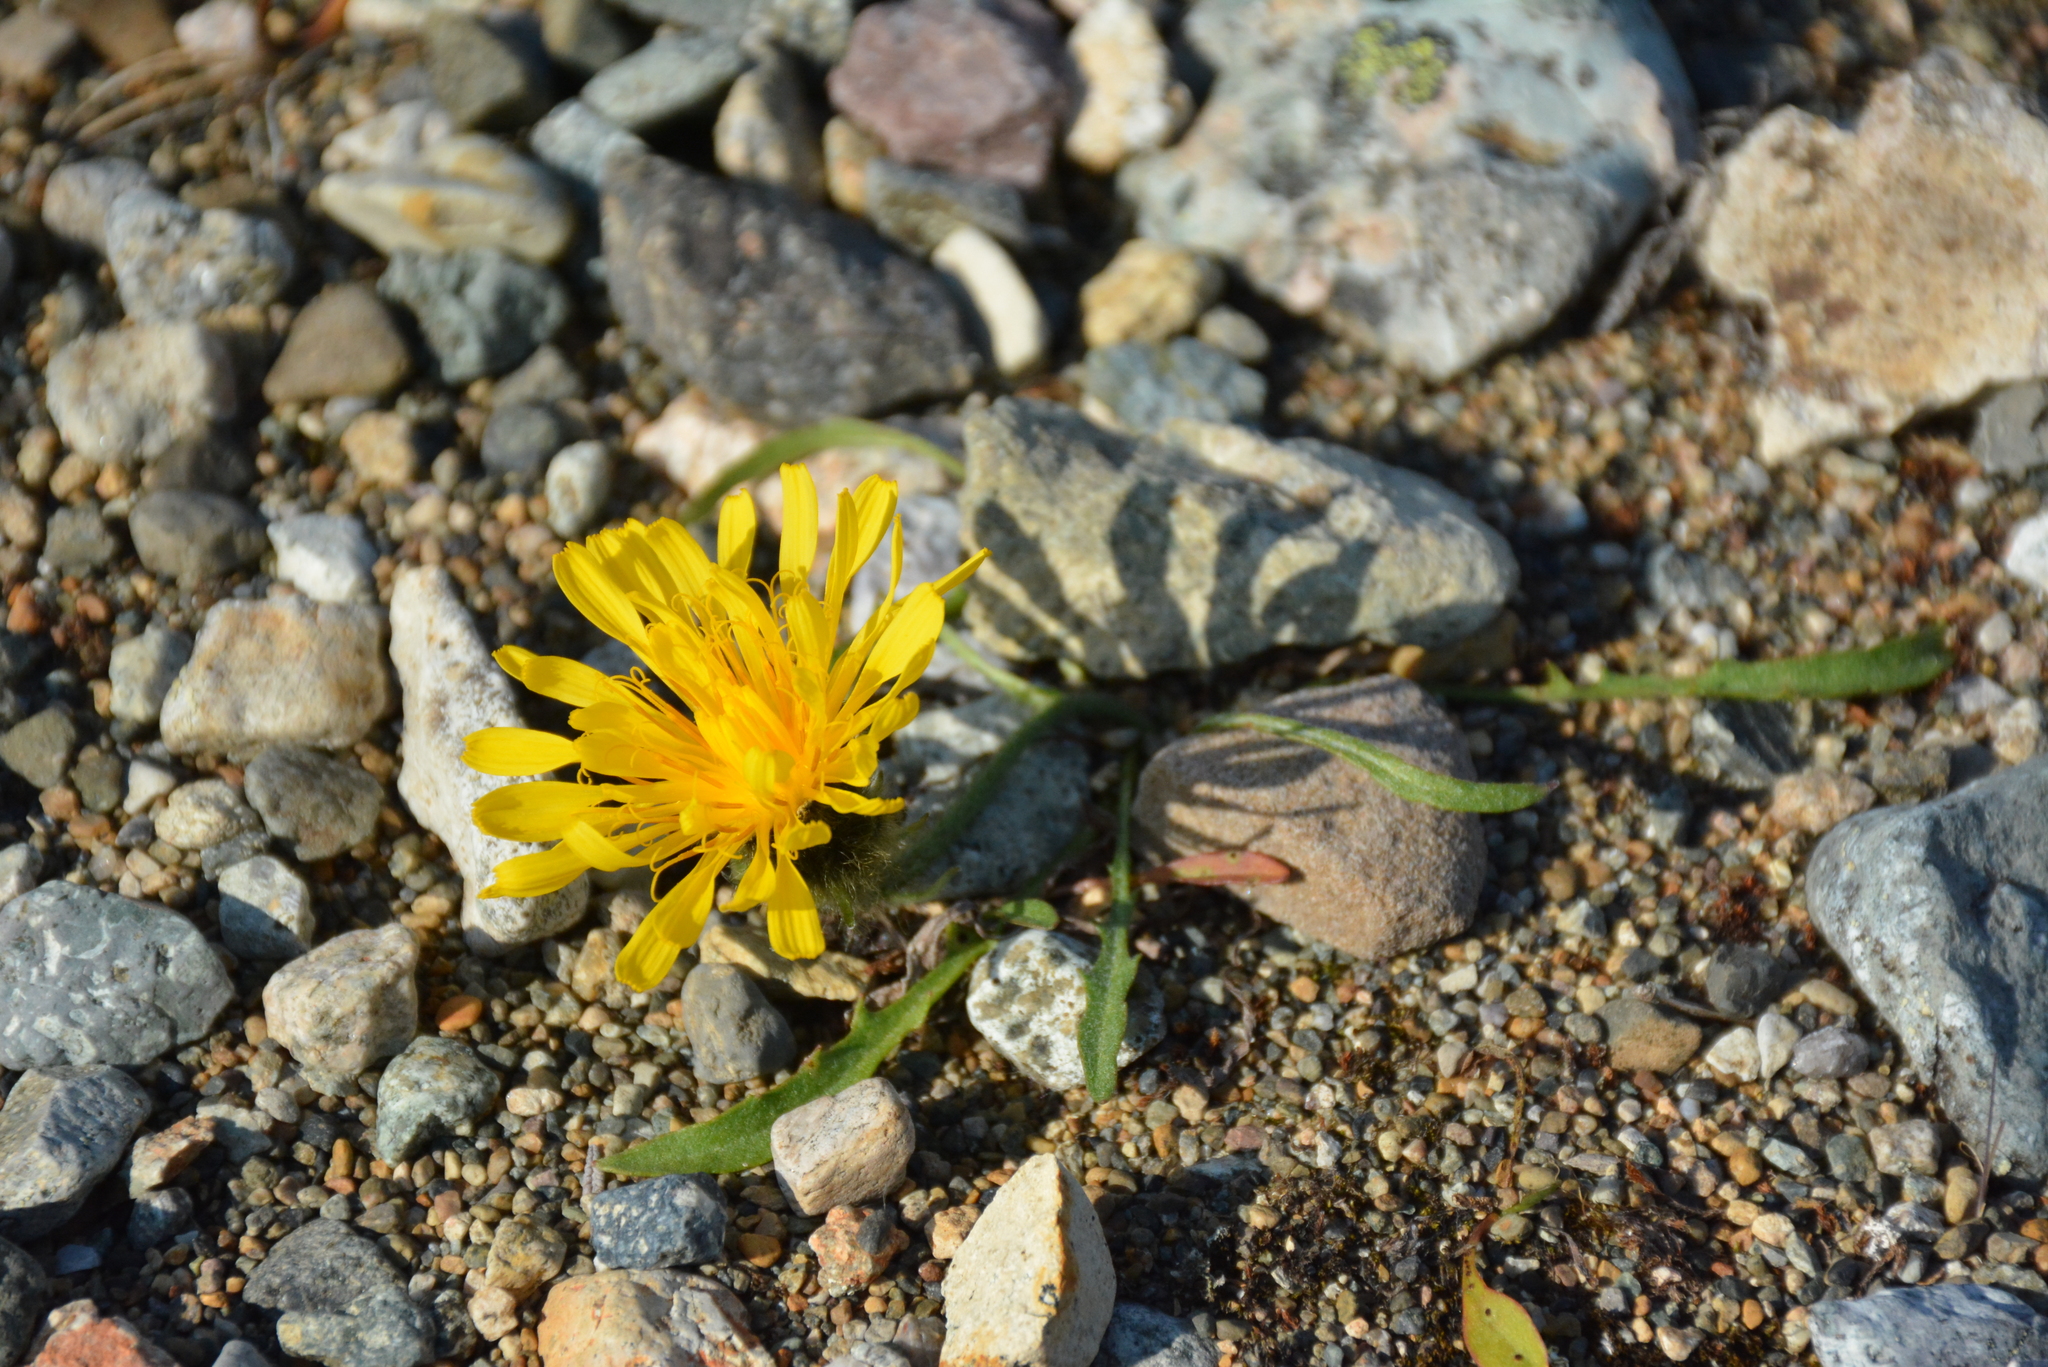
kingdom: Plantae
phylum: Tracheophyta
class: Magnoliopsida
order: Asterales
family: Asteraceae
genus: Crepis
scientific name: Crepis chrysantha
